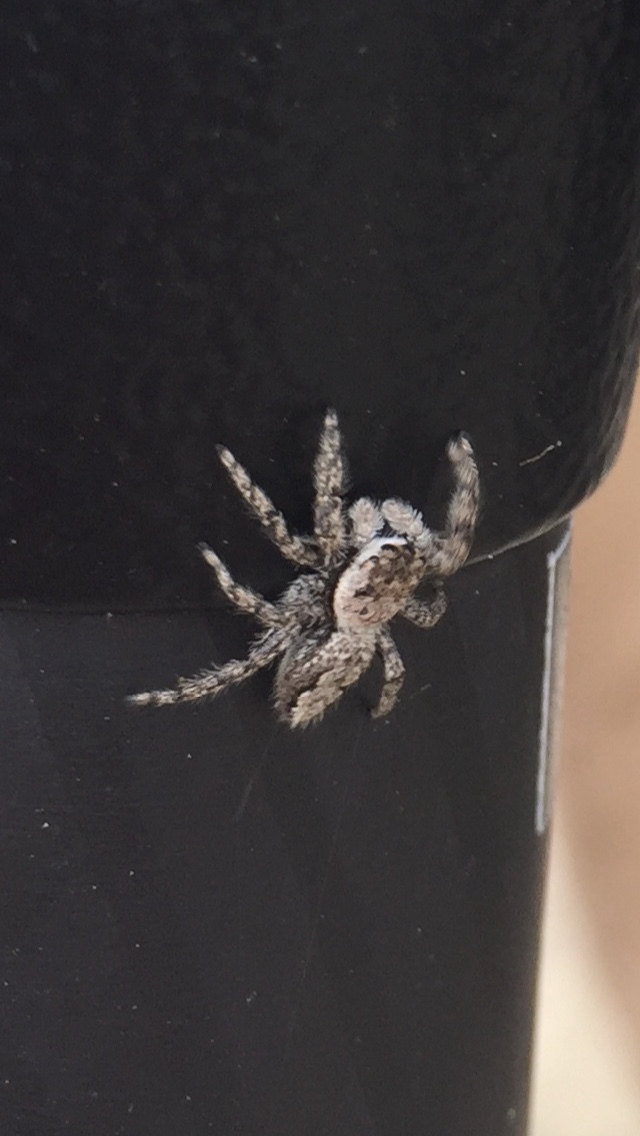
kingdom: Animalia
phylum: Arthropoda
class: Arachnida
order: Araneae
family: Salticidae
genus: Platycryptus
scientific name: Platycryptus undatus
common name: Tan jumping spider
